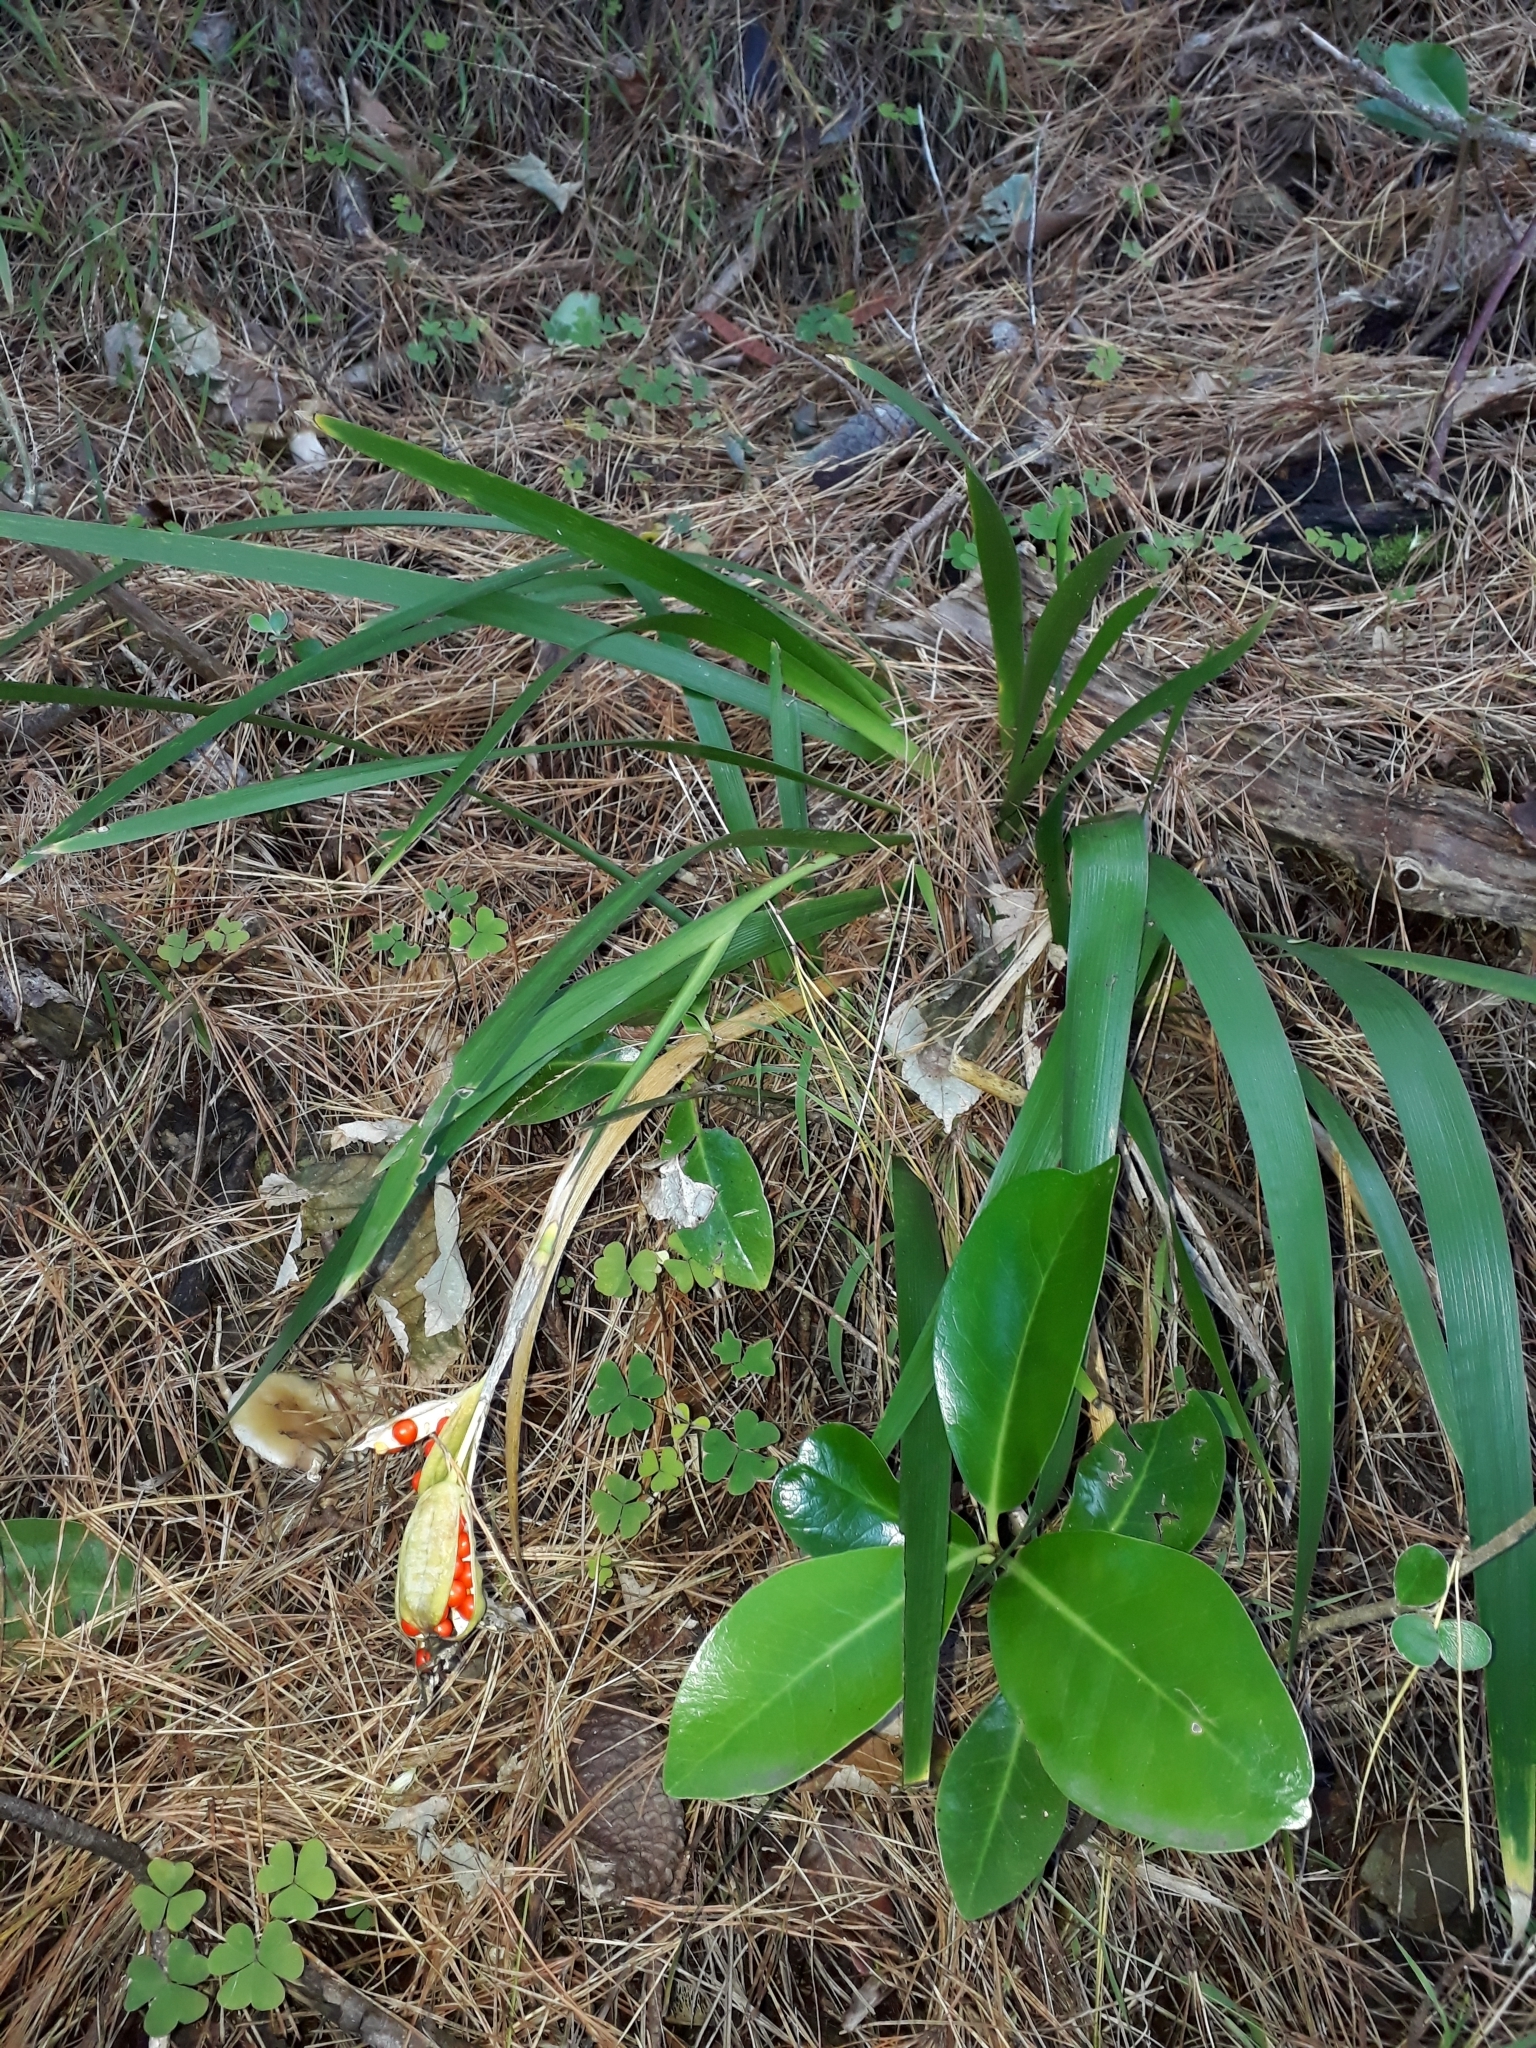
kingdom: Plantae
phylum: Tracheophyta
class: Liliopsida
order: Asparagales
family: Iridaceae
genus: Iris
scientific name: Iris foetidissima
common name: Stinking iris
